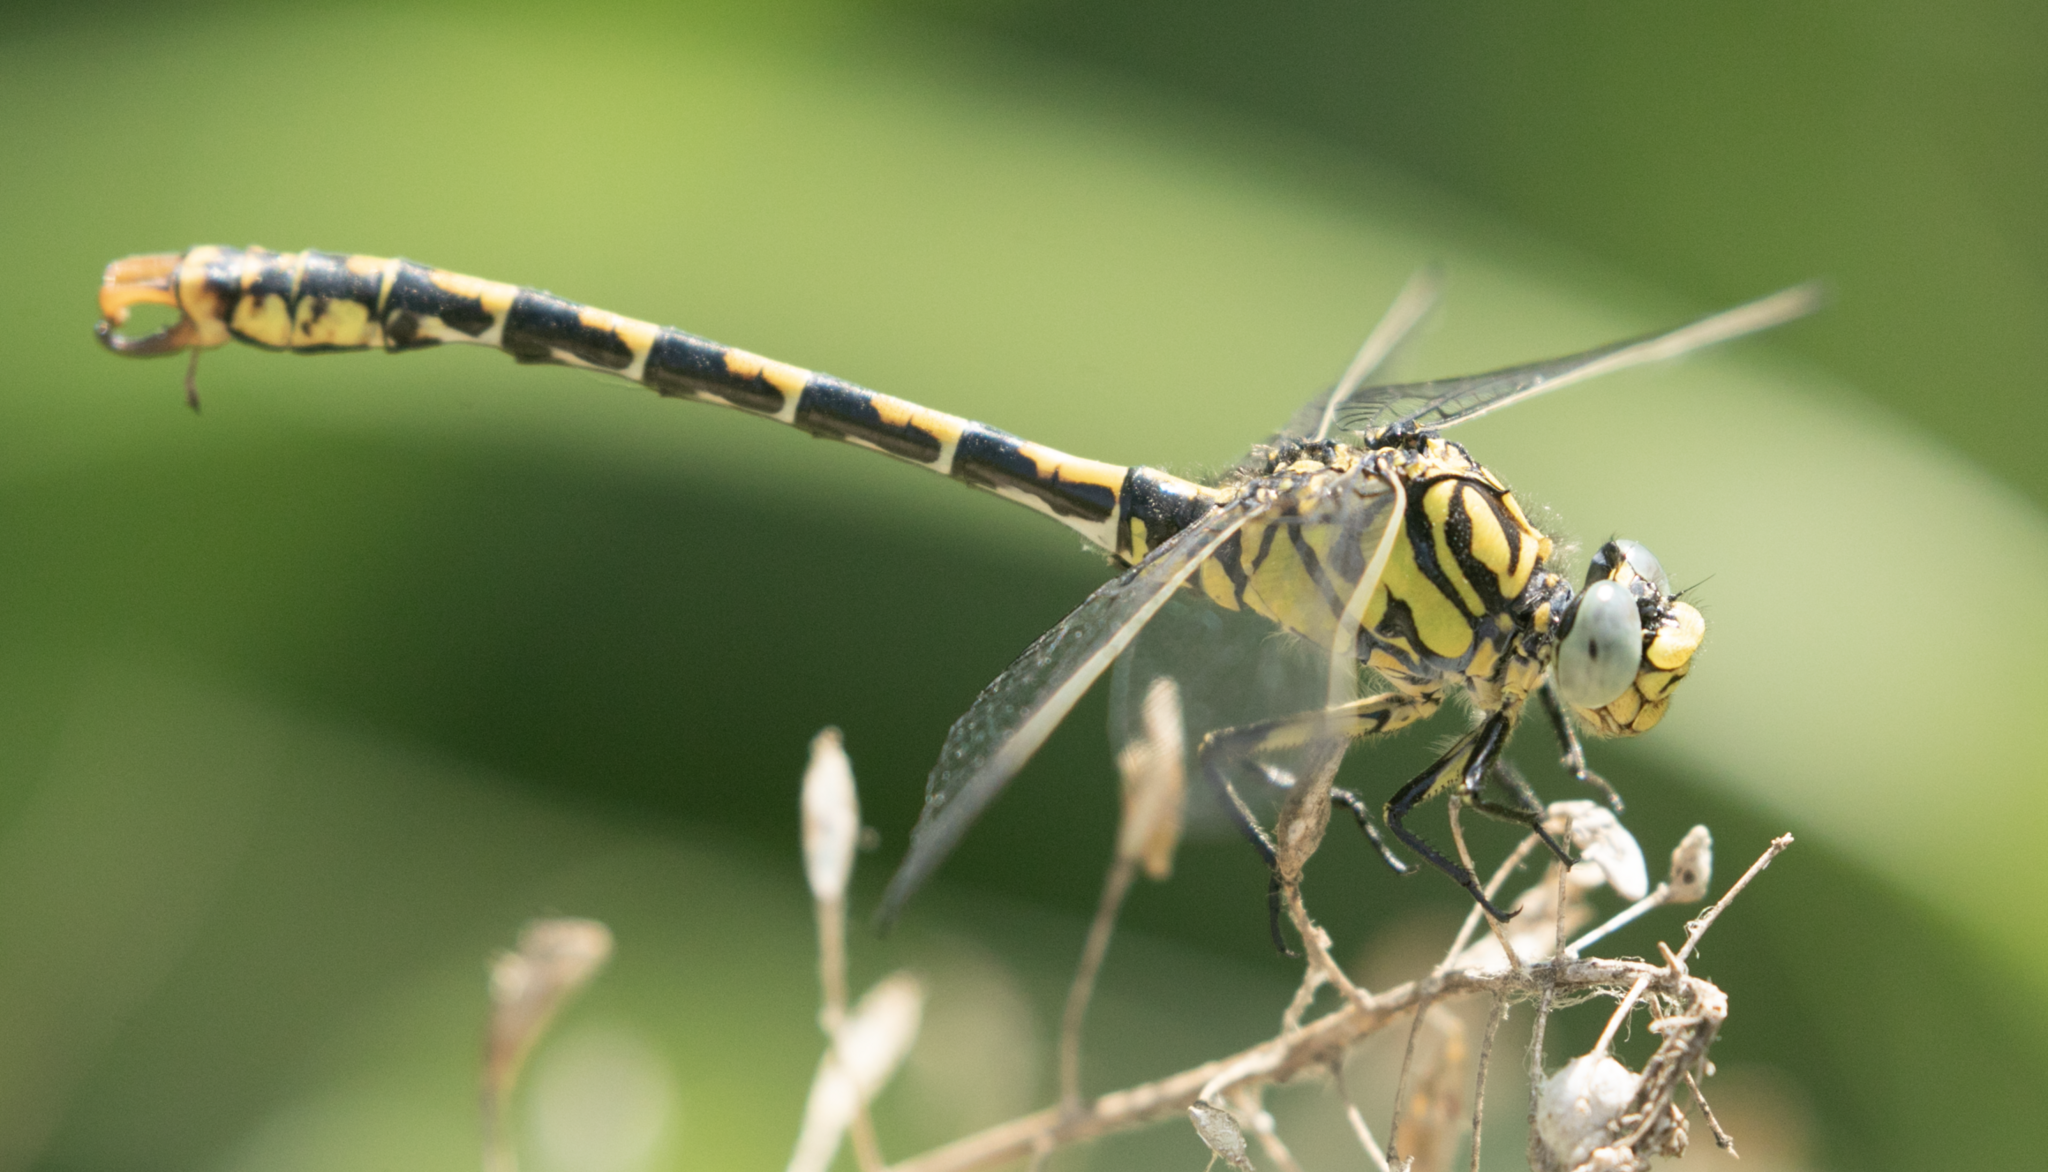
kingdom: Animalia
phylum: Arthropoda
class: Insecta
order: Odonata
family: Gomphidae
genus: Onychogomphus
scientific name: Onychogomphus forcipatus
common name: Small pincertail
